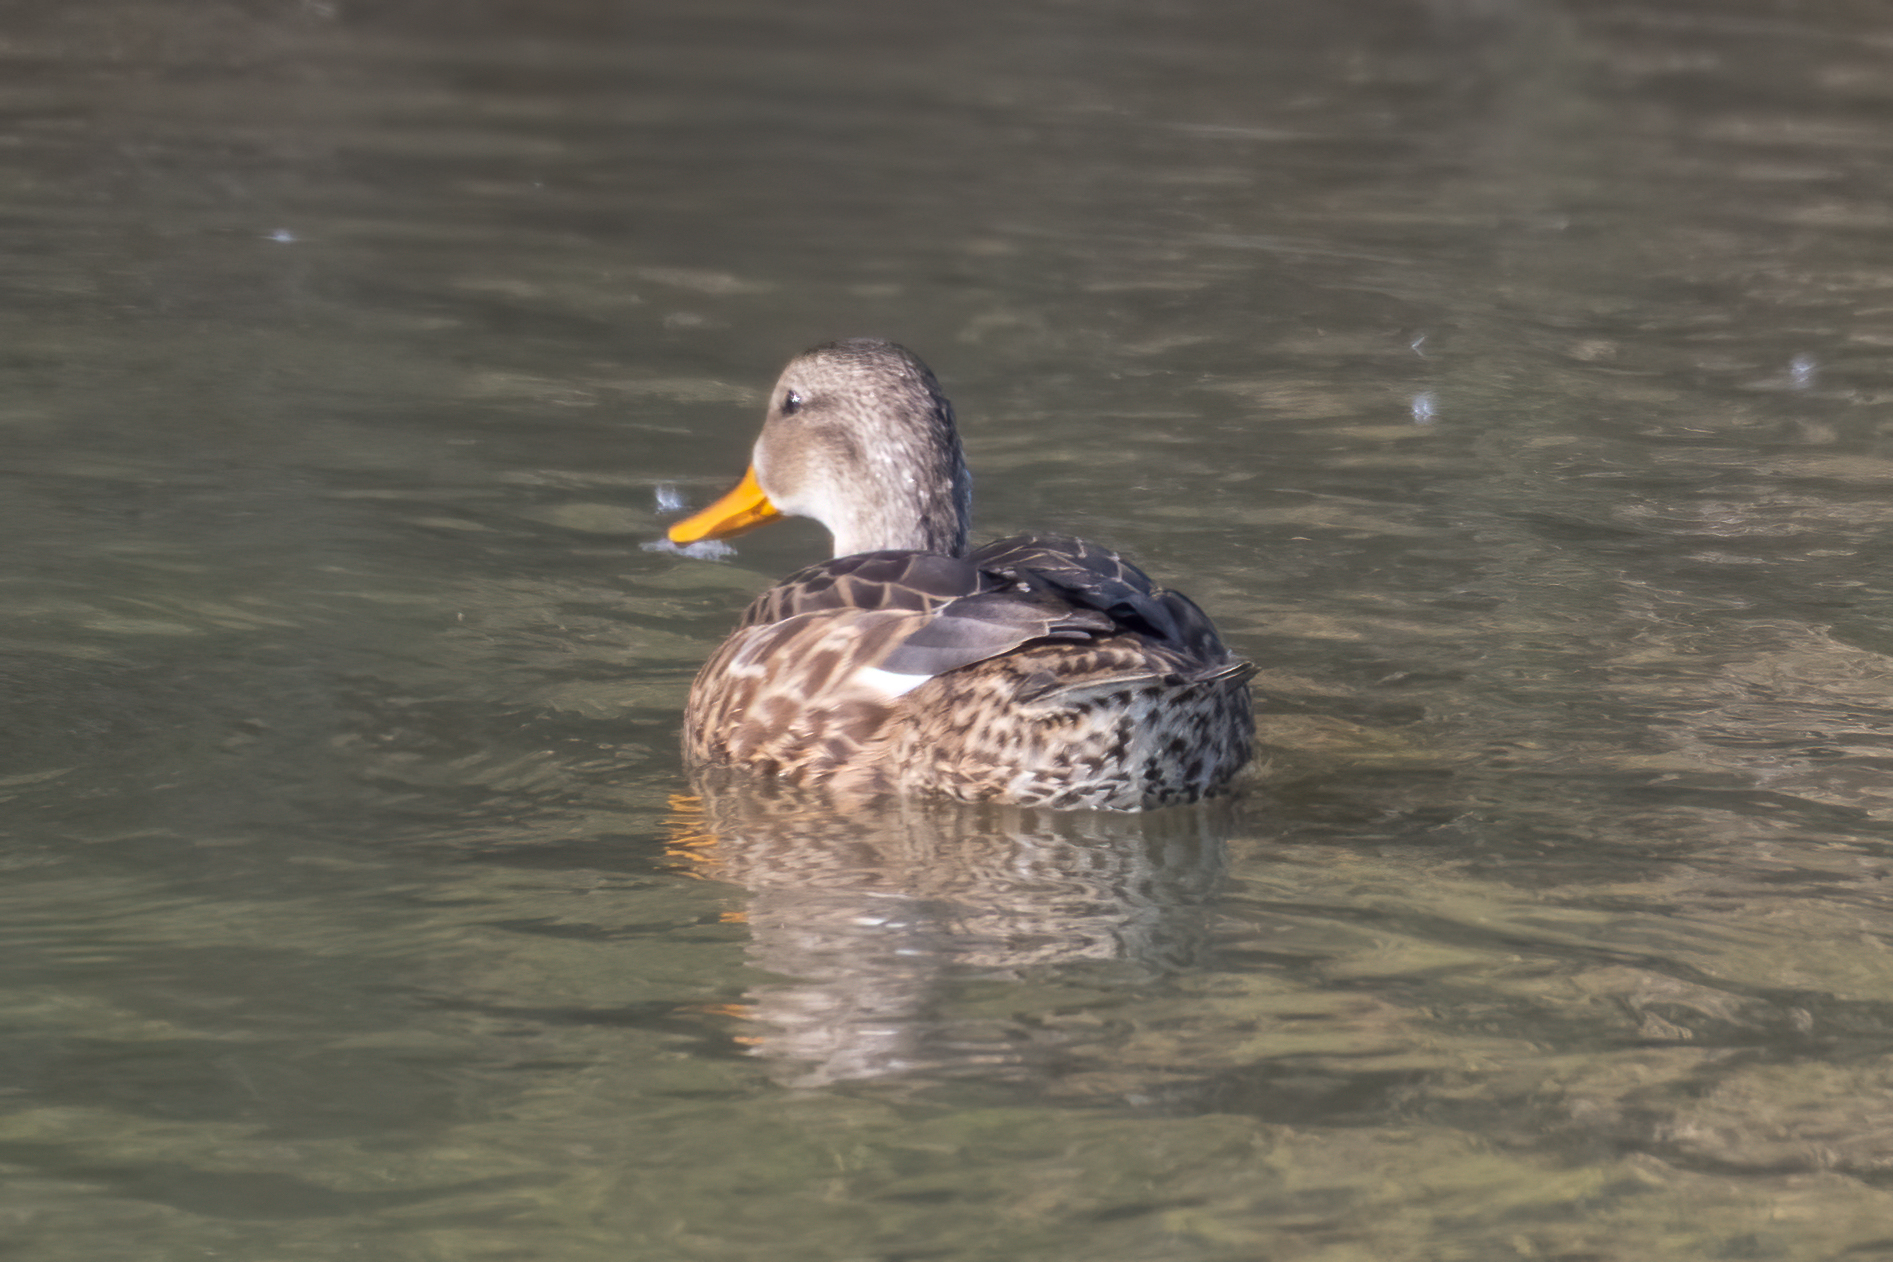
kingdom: Animalia
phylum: Chordata
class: Aves
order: Anseriformes
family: Anatidae
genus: Anas
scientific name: Anas platyrhynchos
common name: Mallard
